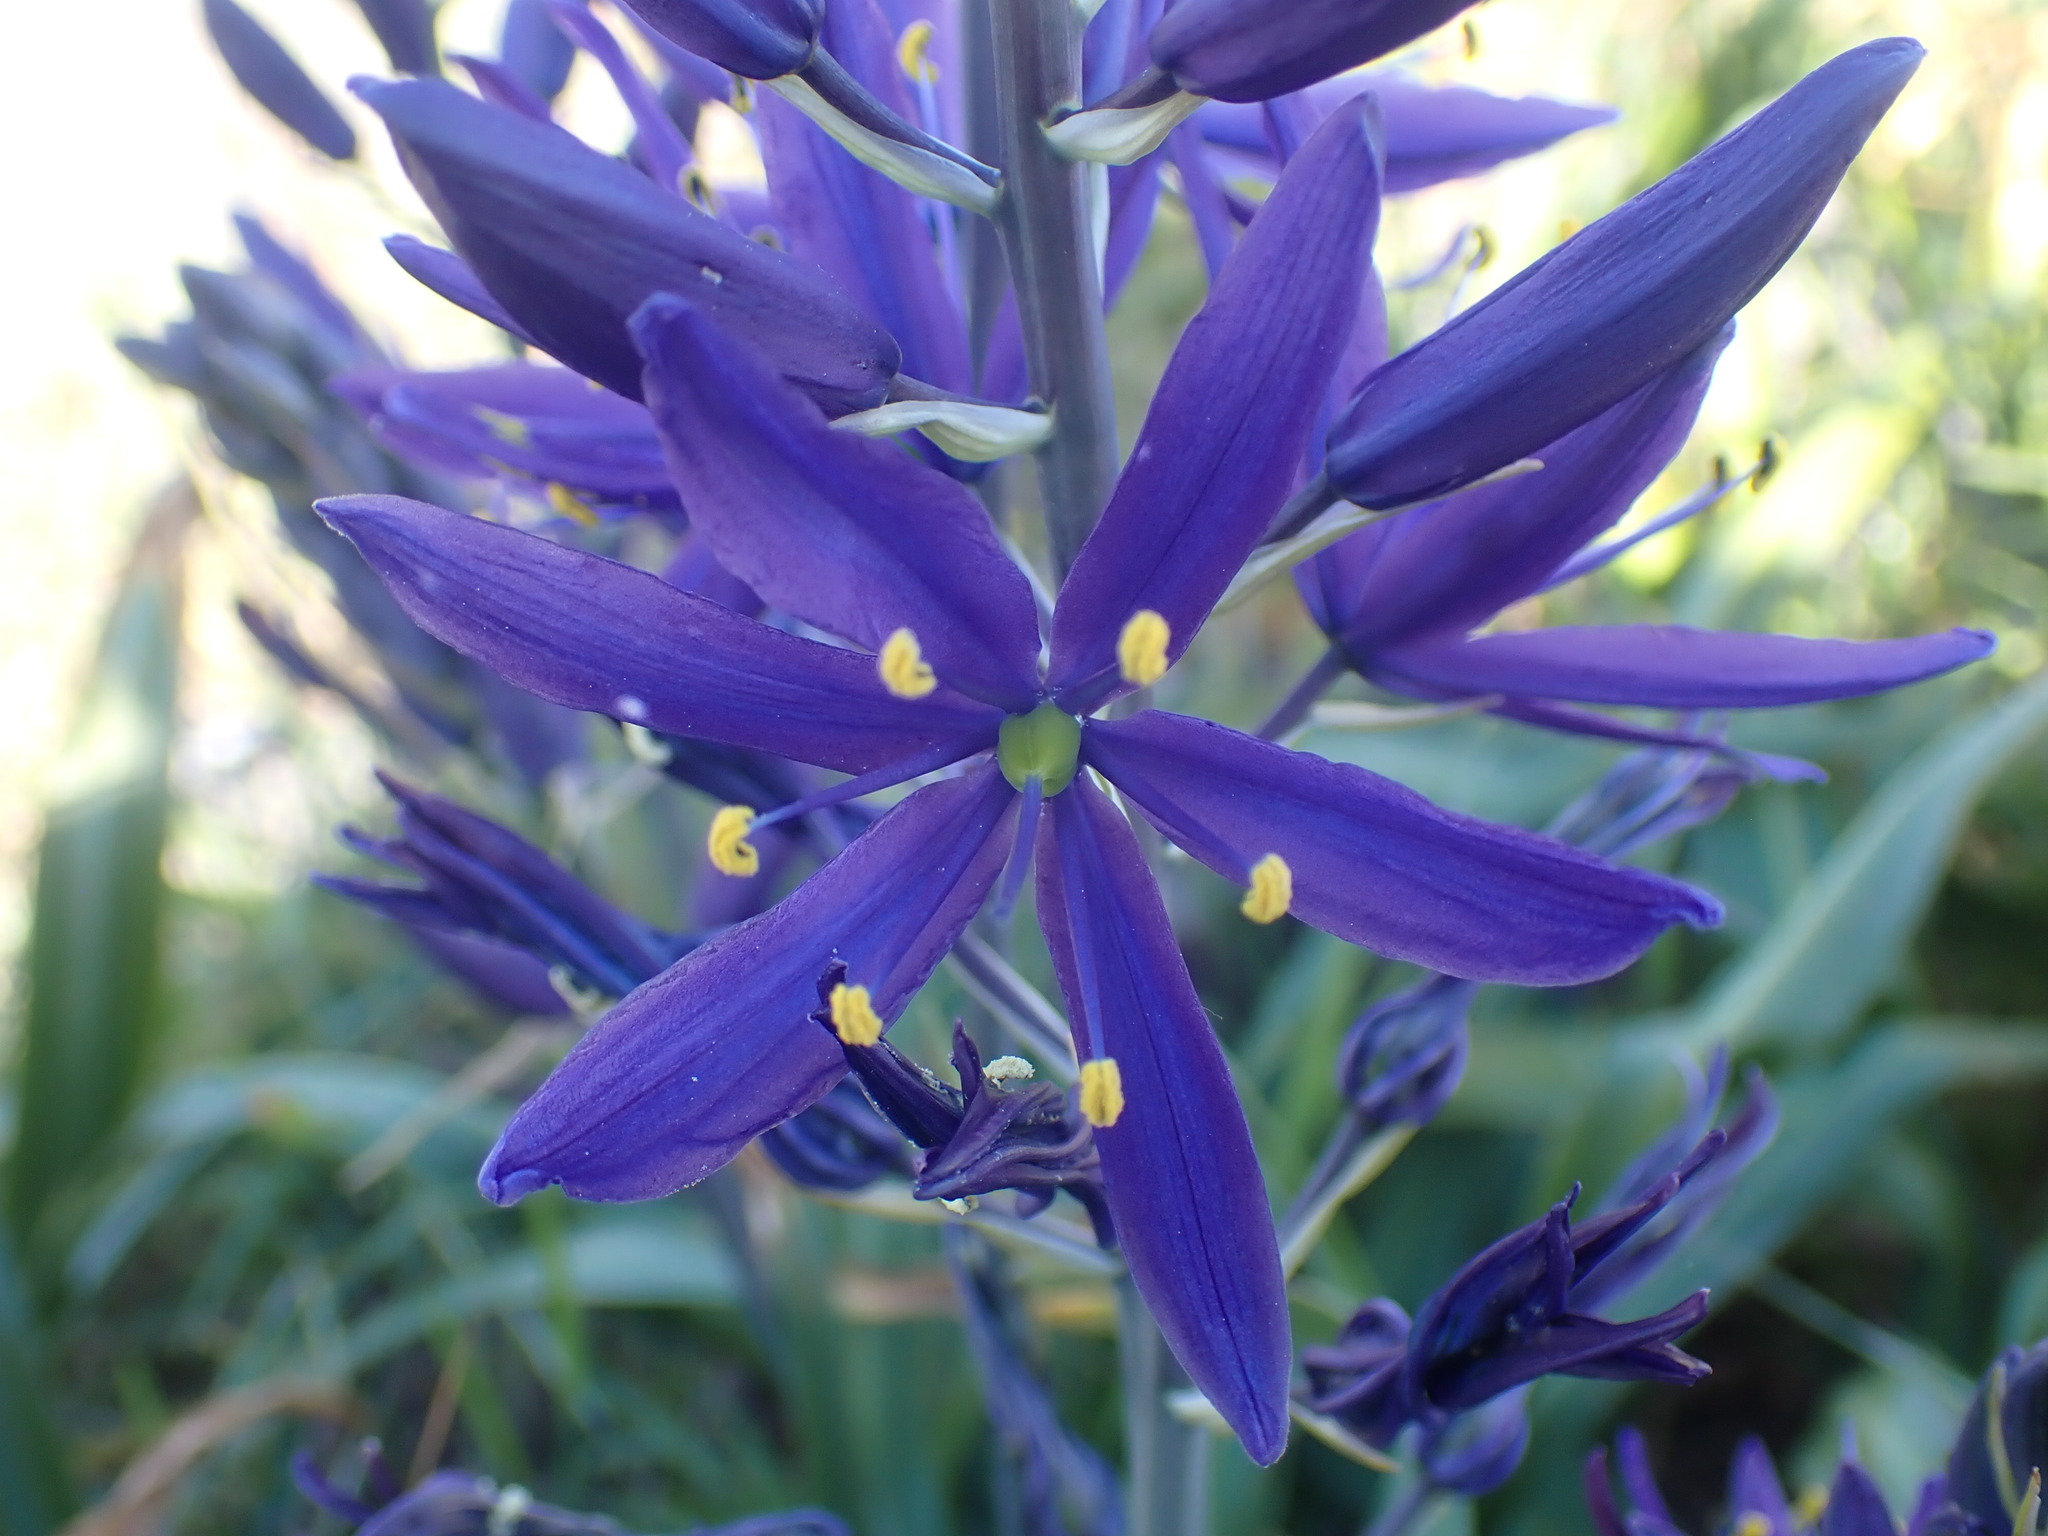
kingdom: Plantae
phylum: Tracheophyta
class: Liliopsida
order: Asparagales
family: Asparagaceae
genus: Camassia
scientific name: Camassia leichtlinii
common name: Leichtlin's camas
